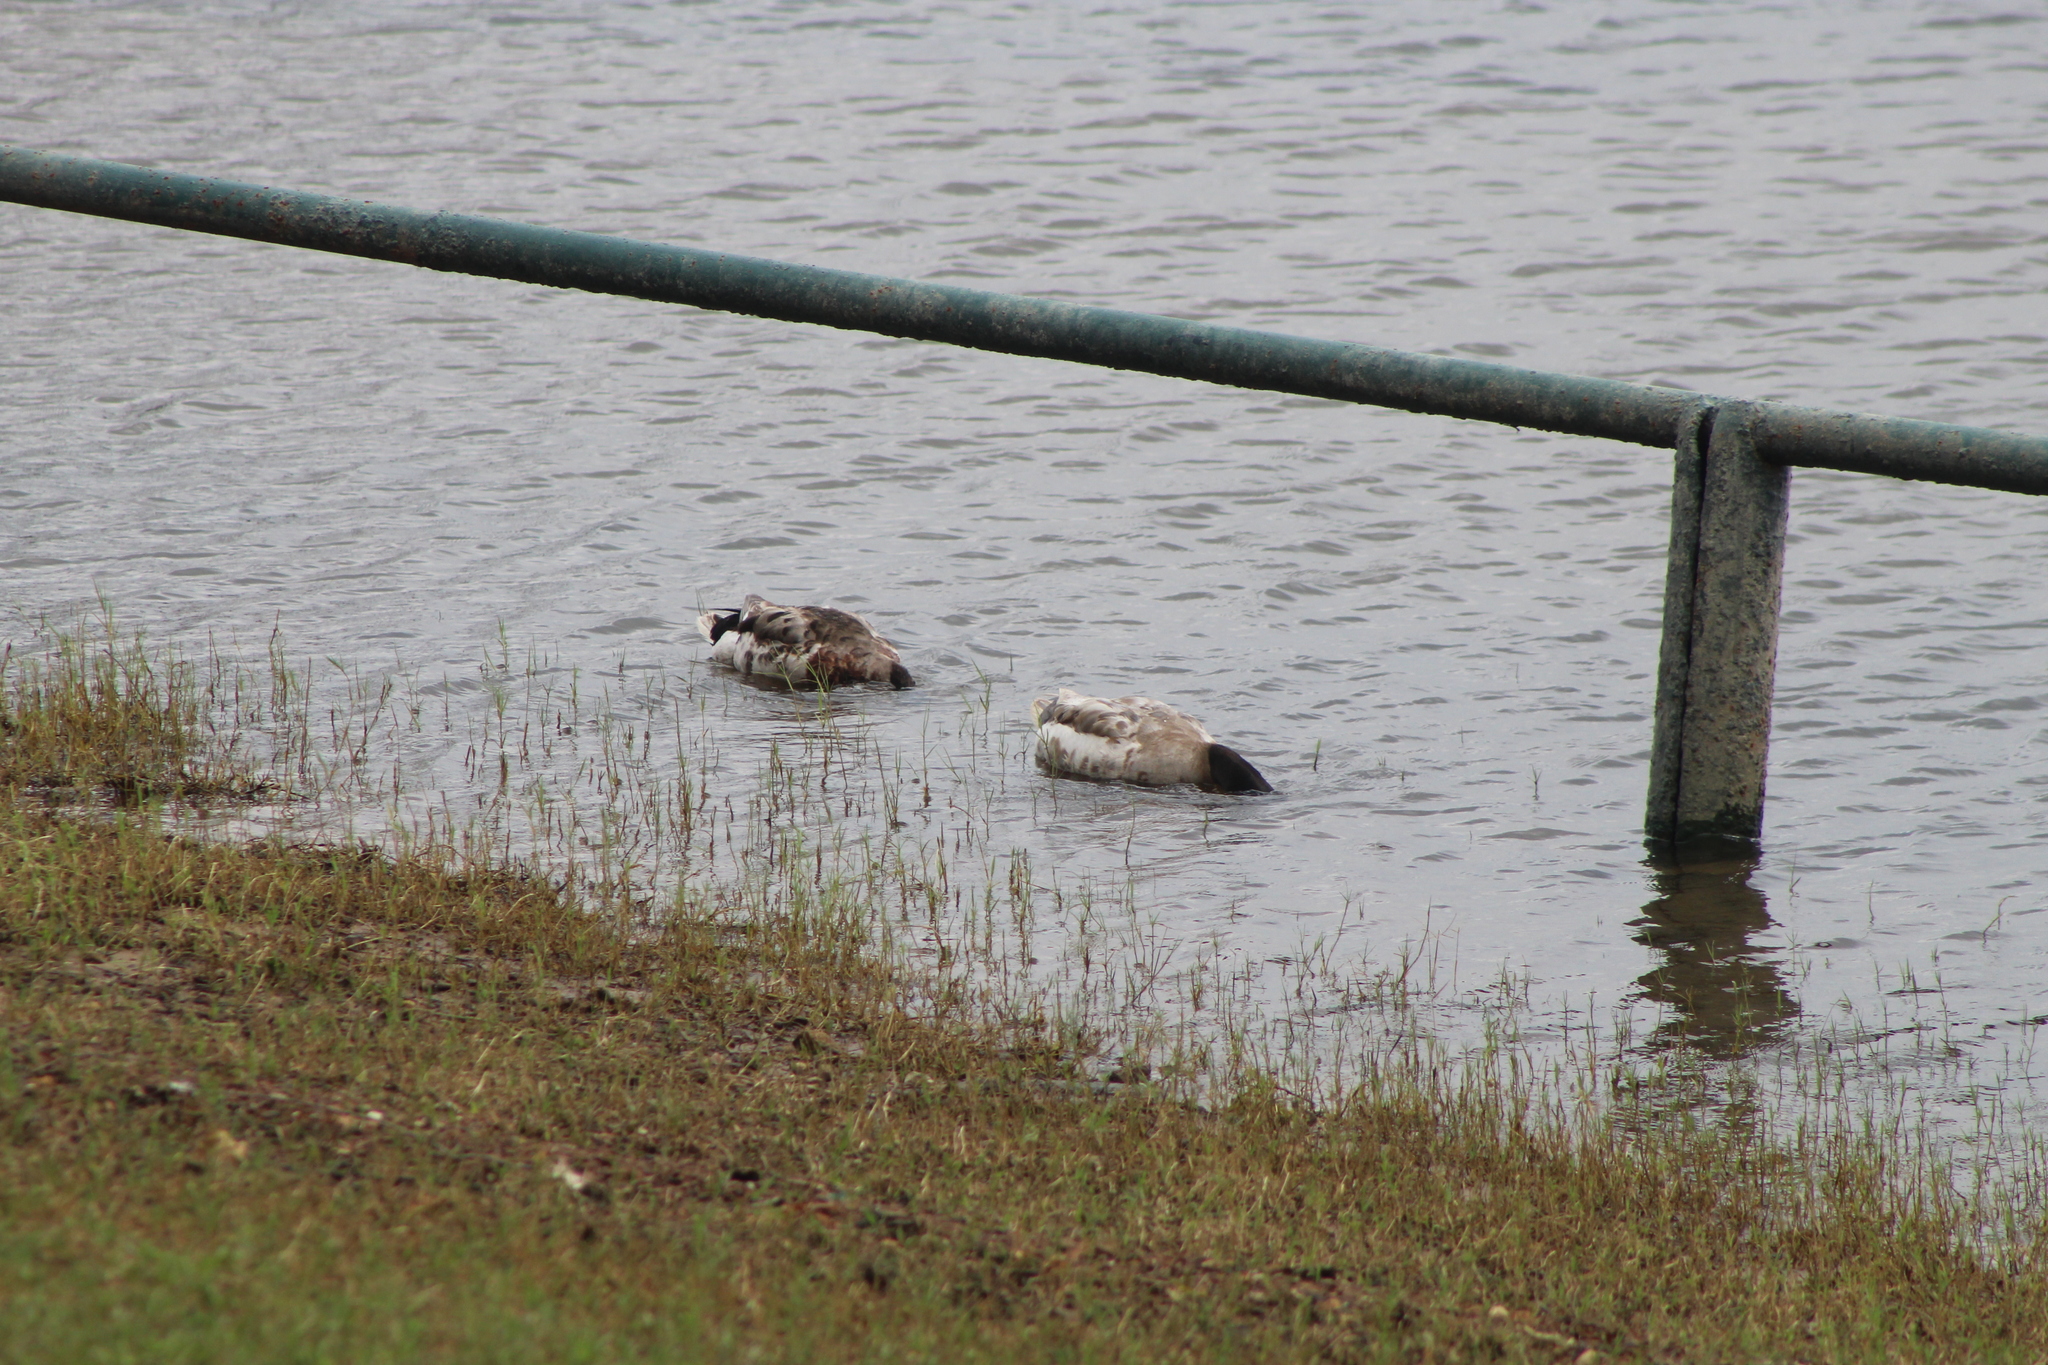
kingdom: Animalia
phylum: Chordata
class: Aves
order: Anseriformes
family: Anatidae
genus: Anas
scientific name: Anas platyrhynchos
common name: Mallard
